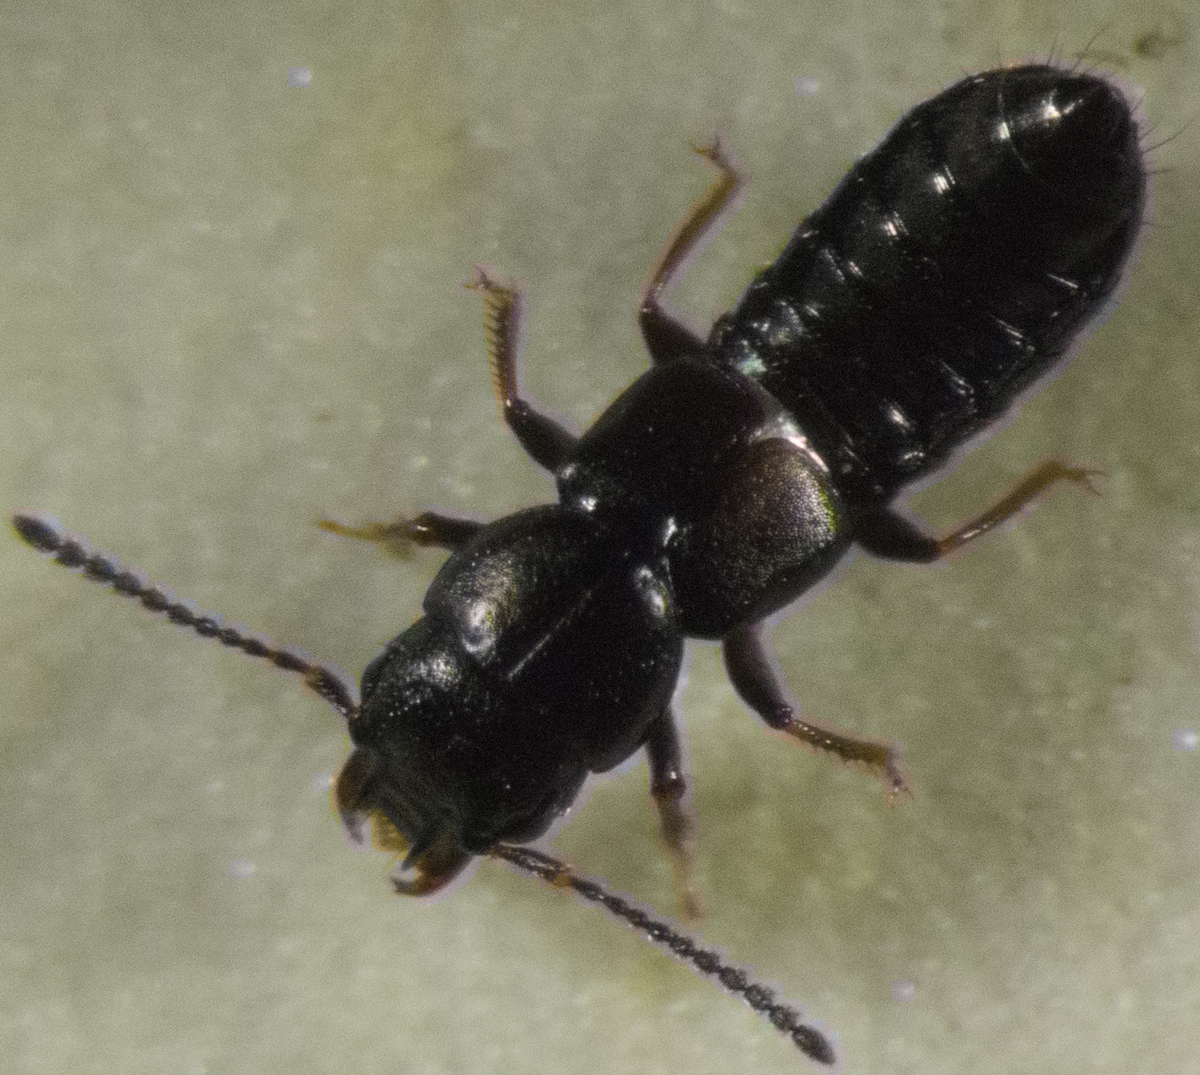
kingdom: Animalia
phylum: Arthropoda
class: Insecta
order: Coleoptera
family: Staphylinidae
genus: Platystethus
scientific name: Platystethus alutaceus
